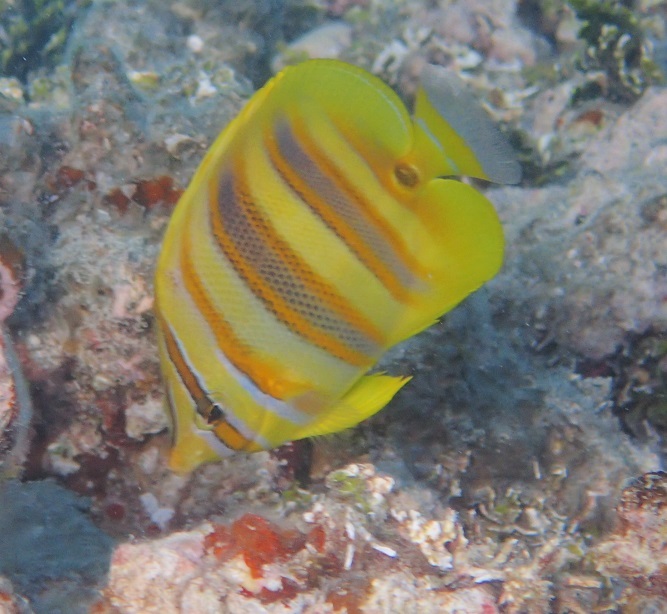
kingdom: Animalia
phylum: Chordata
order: Perciformes
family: Chaetodontidae
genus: Chaetodon
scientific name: Chaetodon rainfordi
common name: Rainford's butterflyfish
